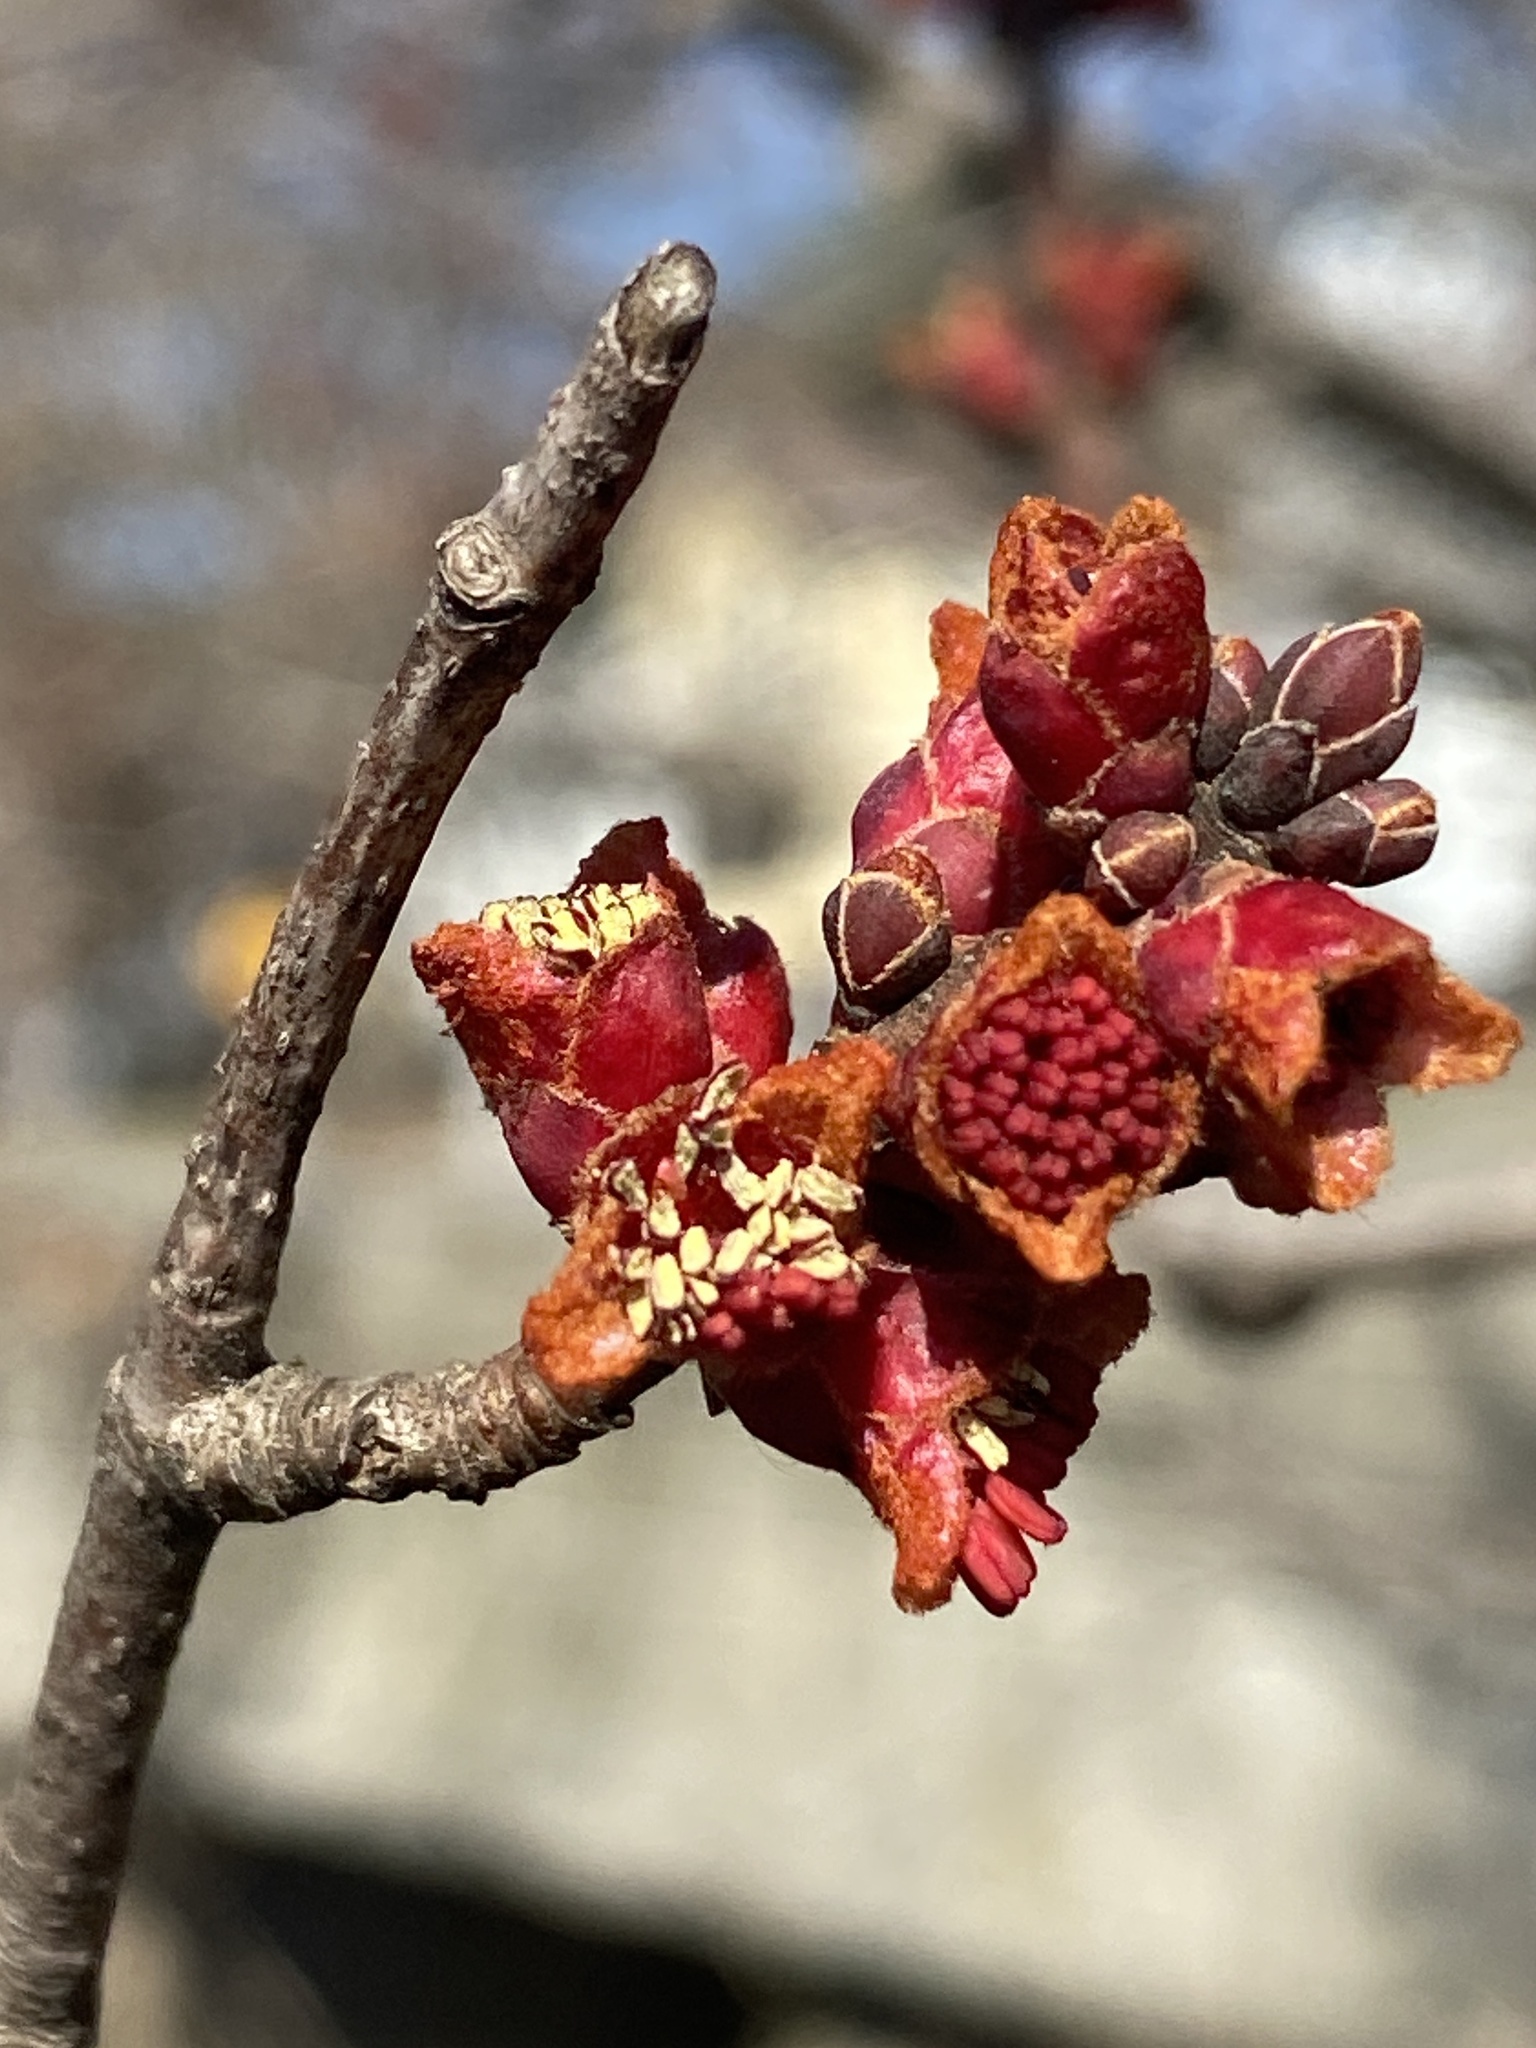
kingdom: Plantae
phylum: Tracheophyta
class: Magnoliopsida
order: Sapindales
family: Sapindaceae
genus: Acer
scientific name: Acer rubrum
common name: Red maple
